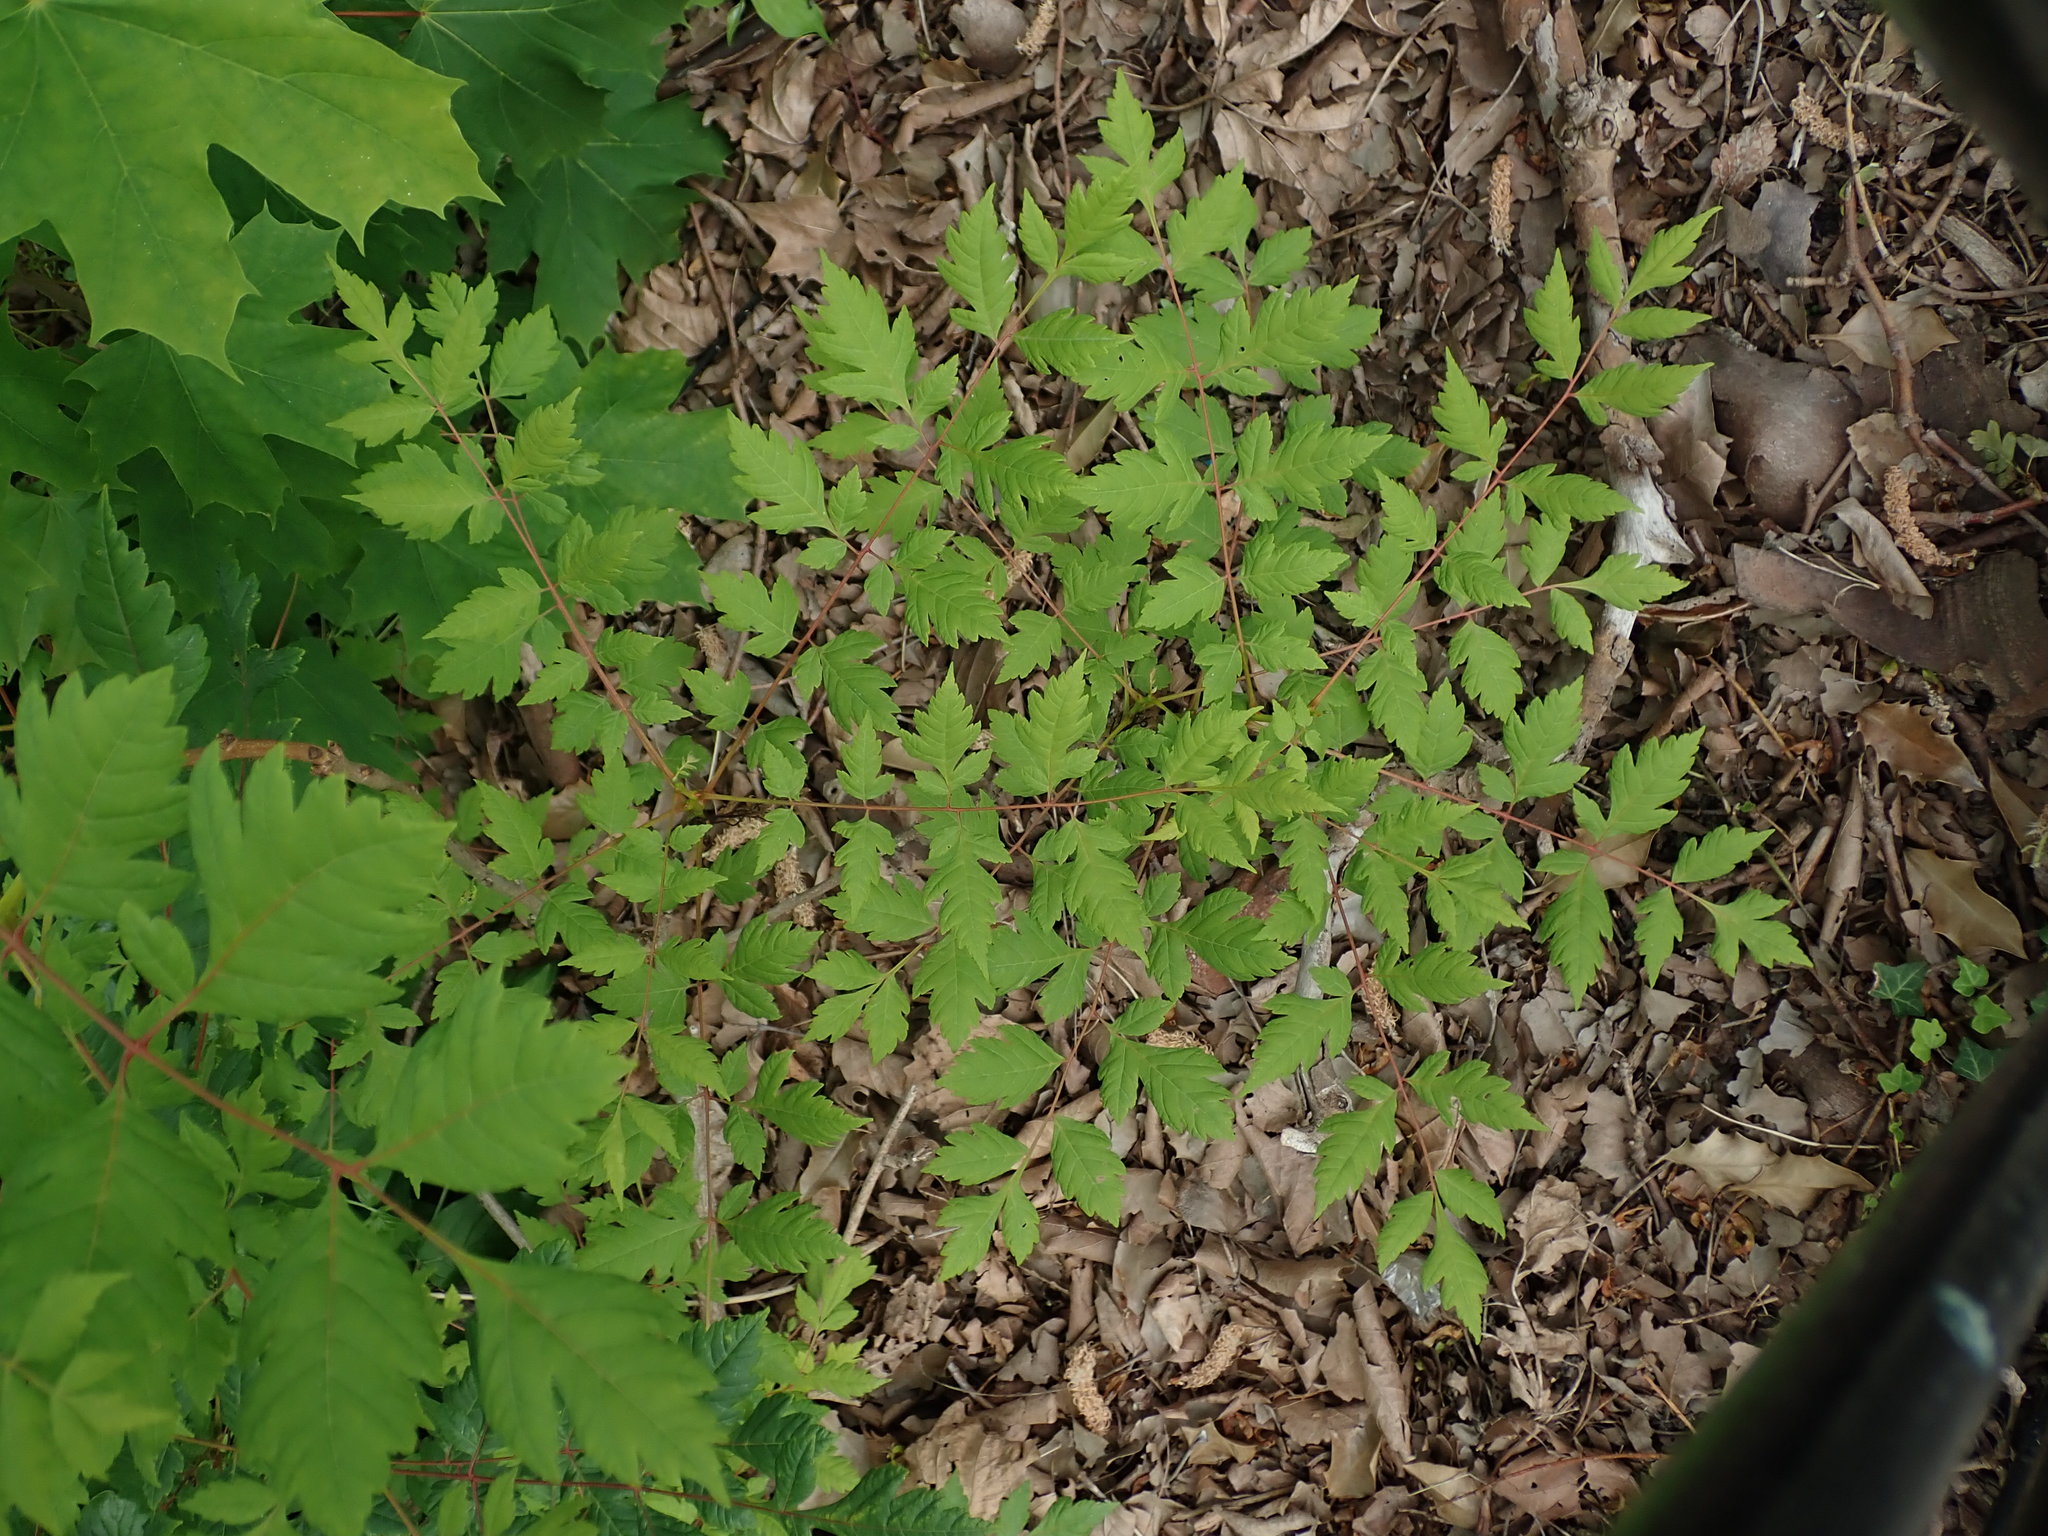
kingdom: Plantae
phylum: Tracheophyta
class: Magnoliopsida
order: Sapindales
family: Sapindaceae
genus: Koelreuteria
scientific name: Koelreuteria paniculata
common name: Pride-of-india
